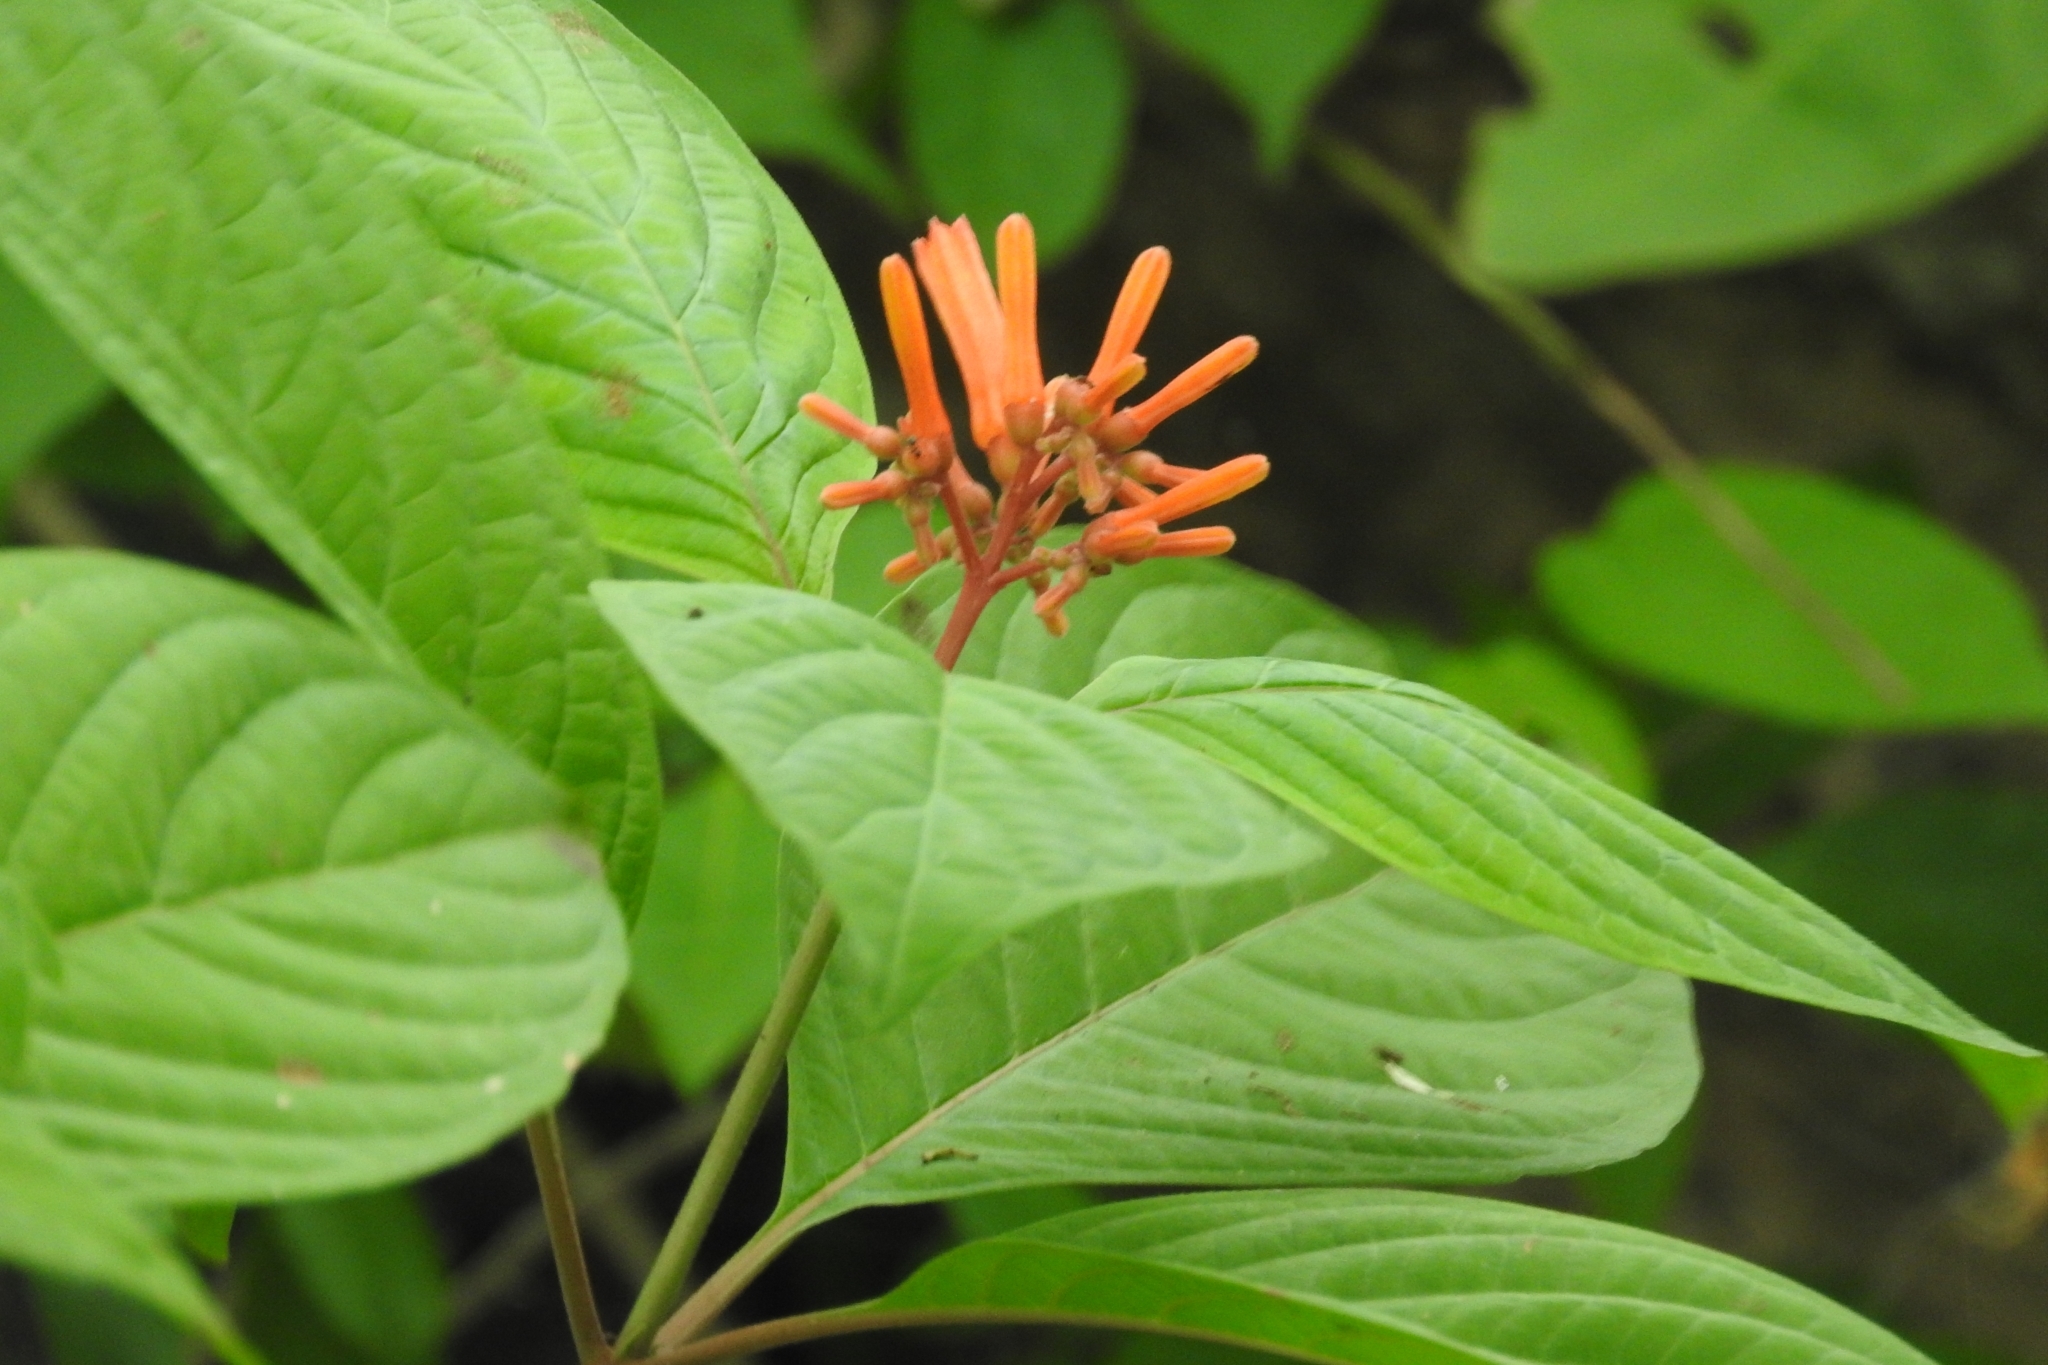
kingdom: Plantae
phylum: Tracheophyta
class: Magnoliopsida
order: Gentianales
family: Rubiaceae
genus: Hamelia
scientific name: Hamelia patens
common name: Redhead
